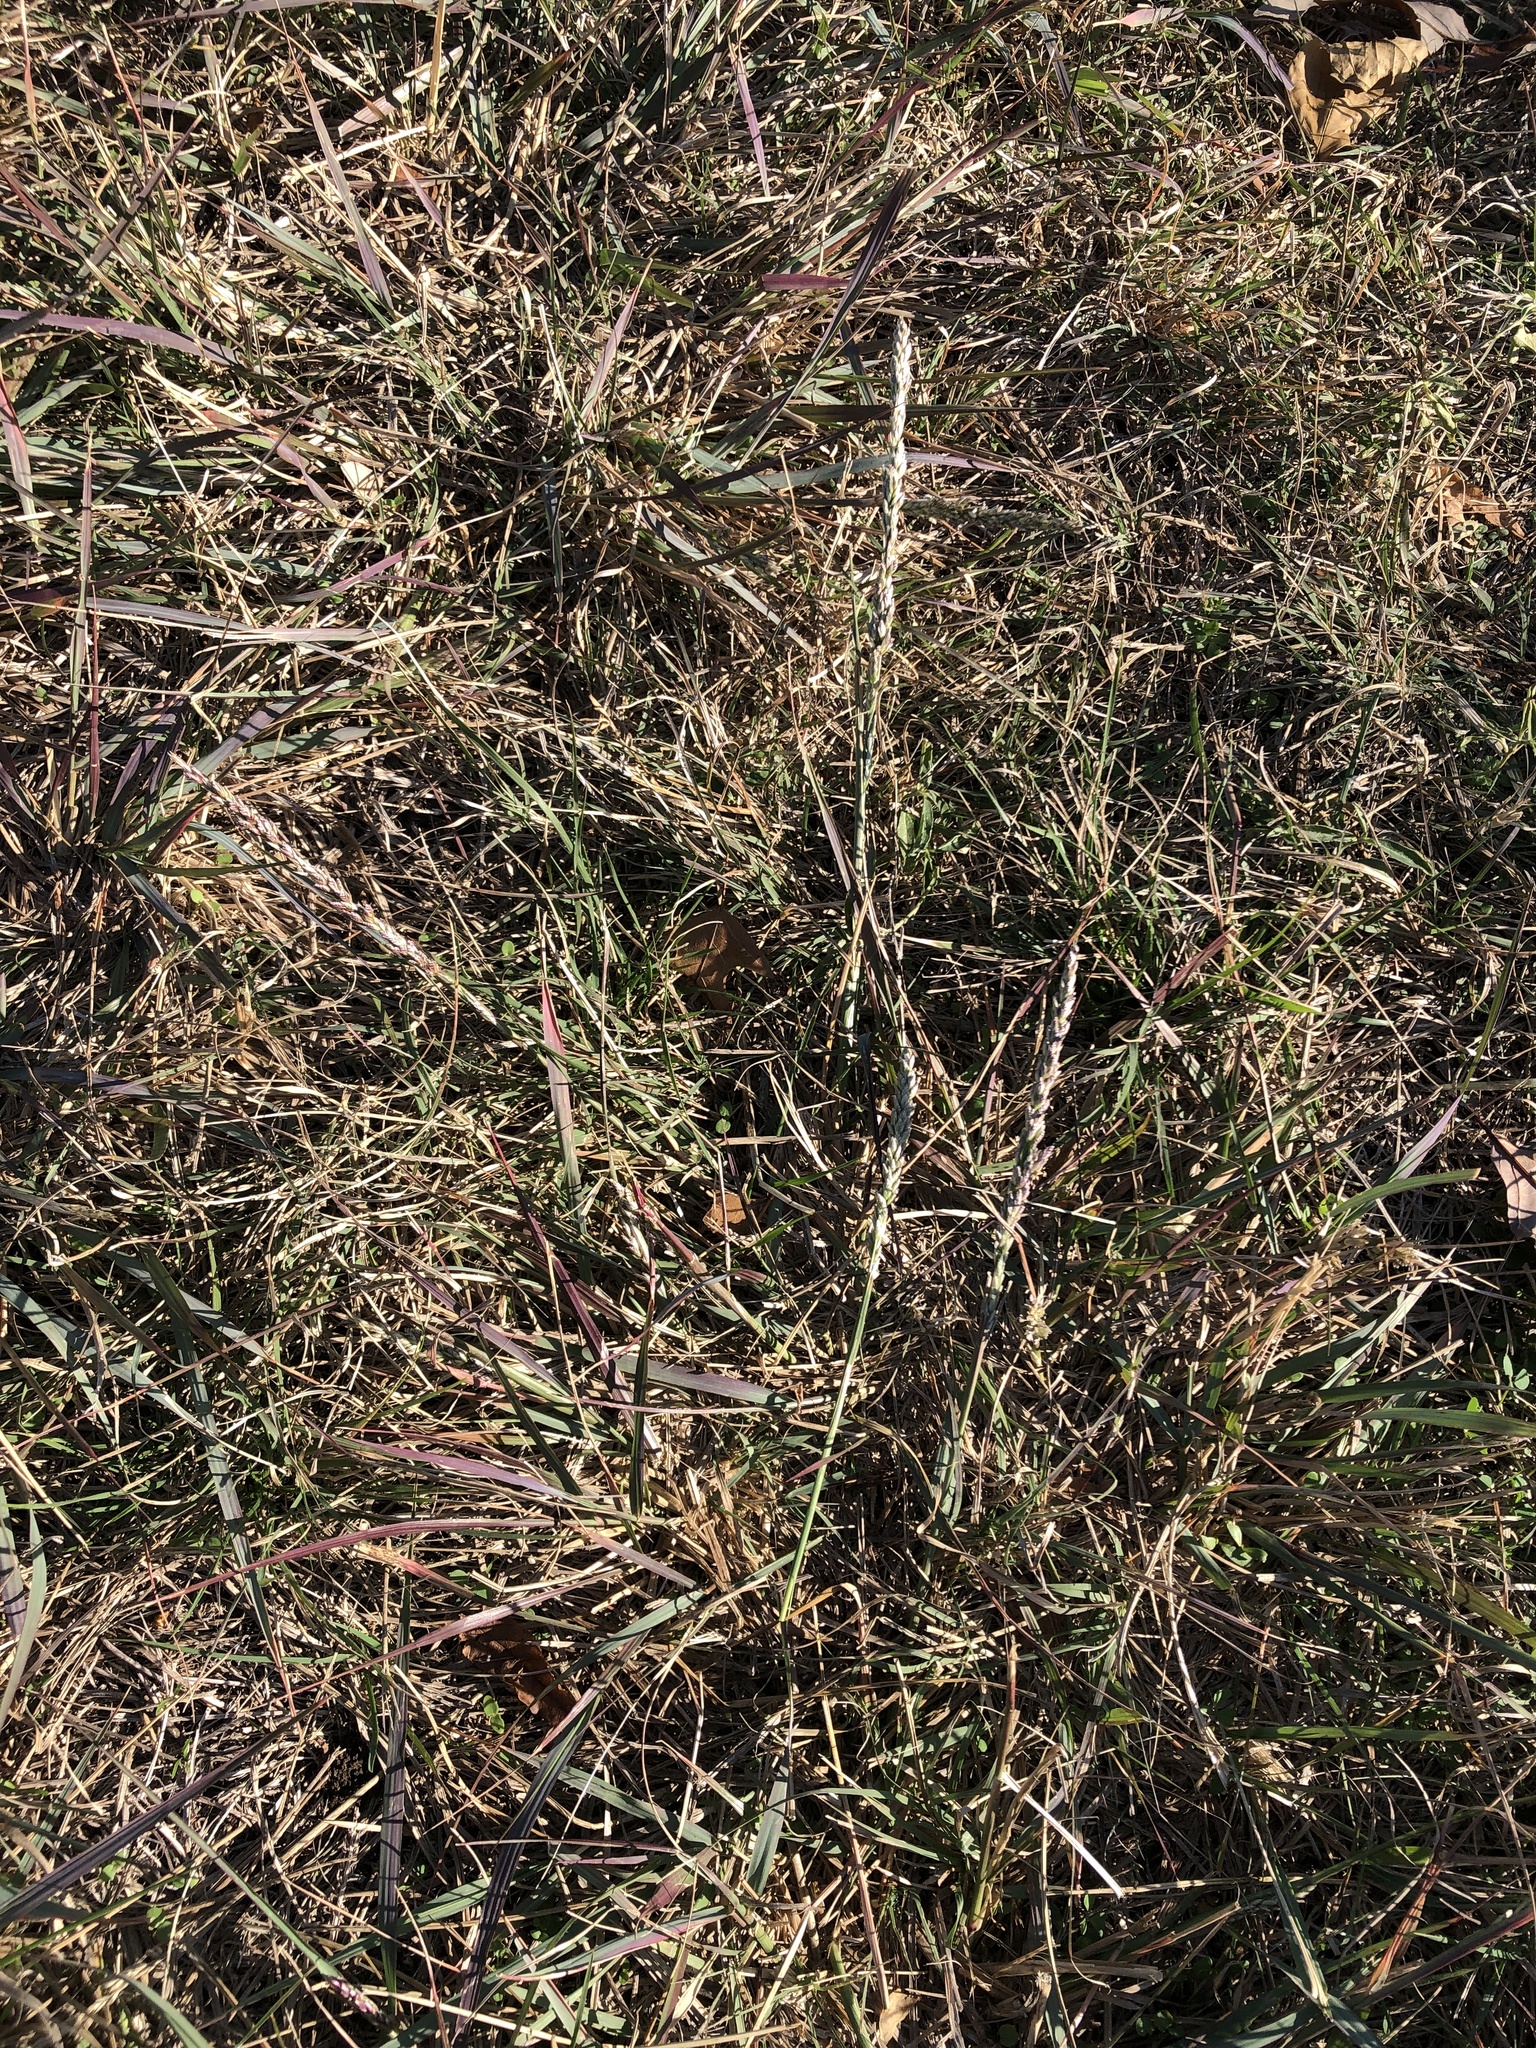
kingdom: Plantae
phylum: Tracheophyta
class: Liliopsida
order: Poales
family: Poaceae
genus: Tridens
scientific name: Tridens albescens
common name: White tridens
